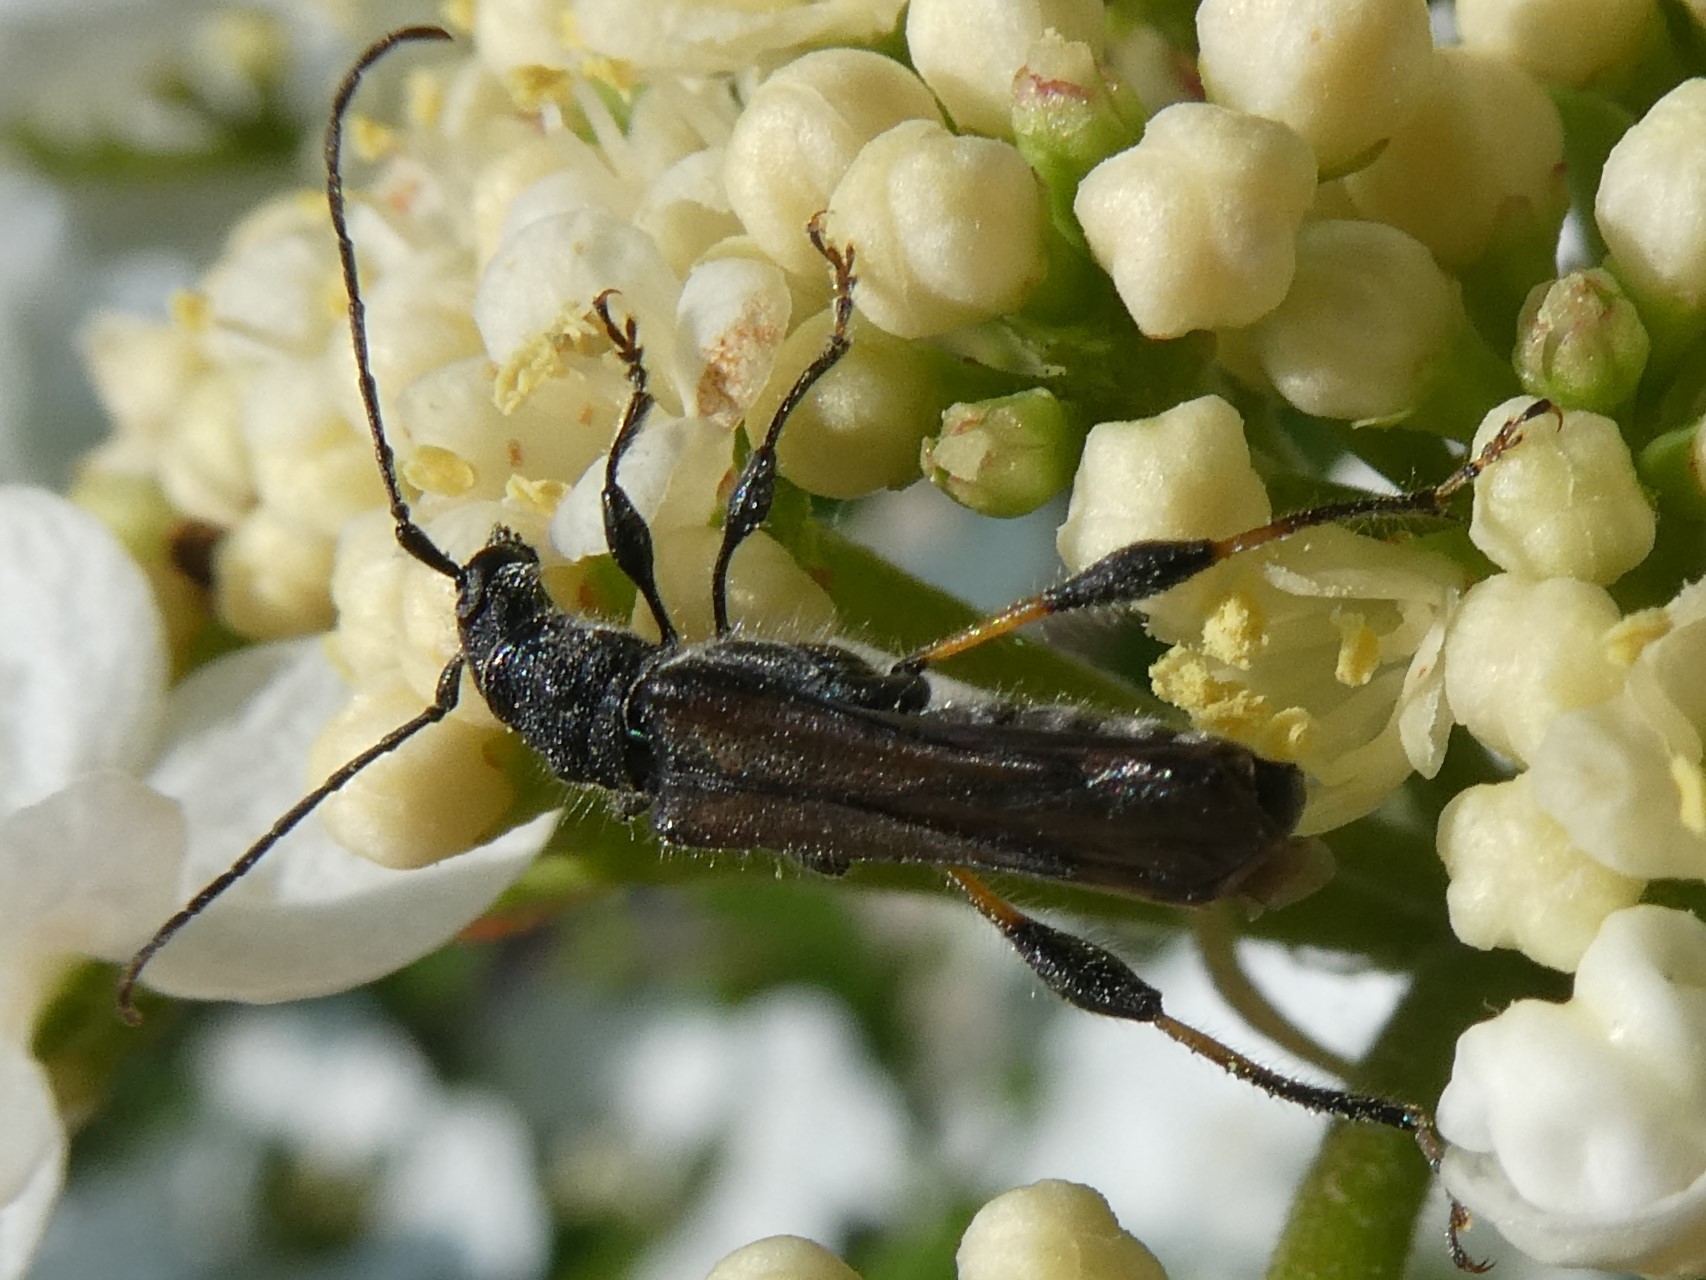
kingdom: Animalia
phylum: Arthropoda
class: Insecta
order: Coleoptera
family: Cerambycidae
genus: Callimoxys
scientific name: Callimoxys sanguinicollis
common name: Blood-necked longhorn beetle
